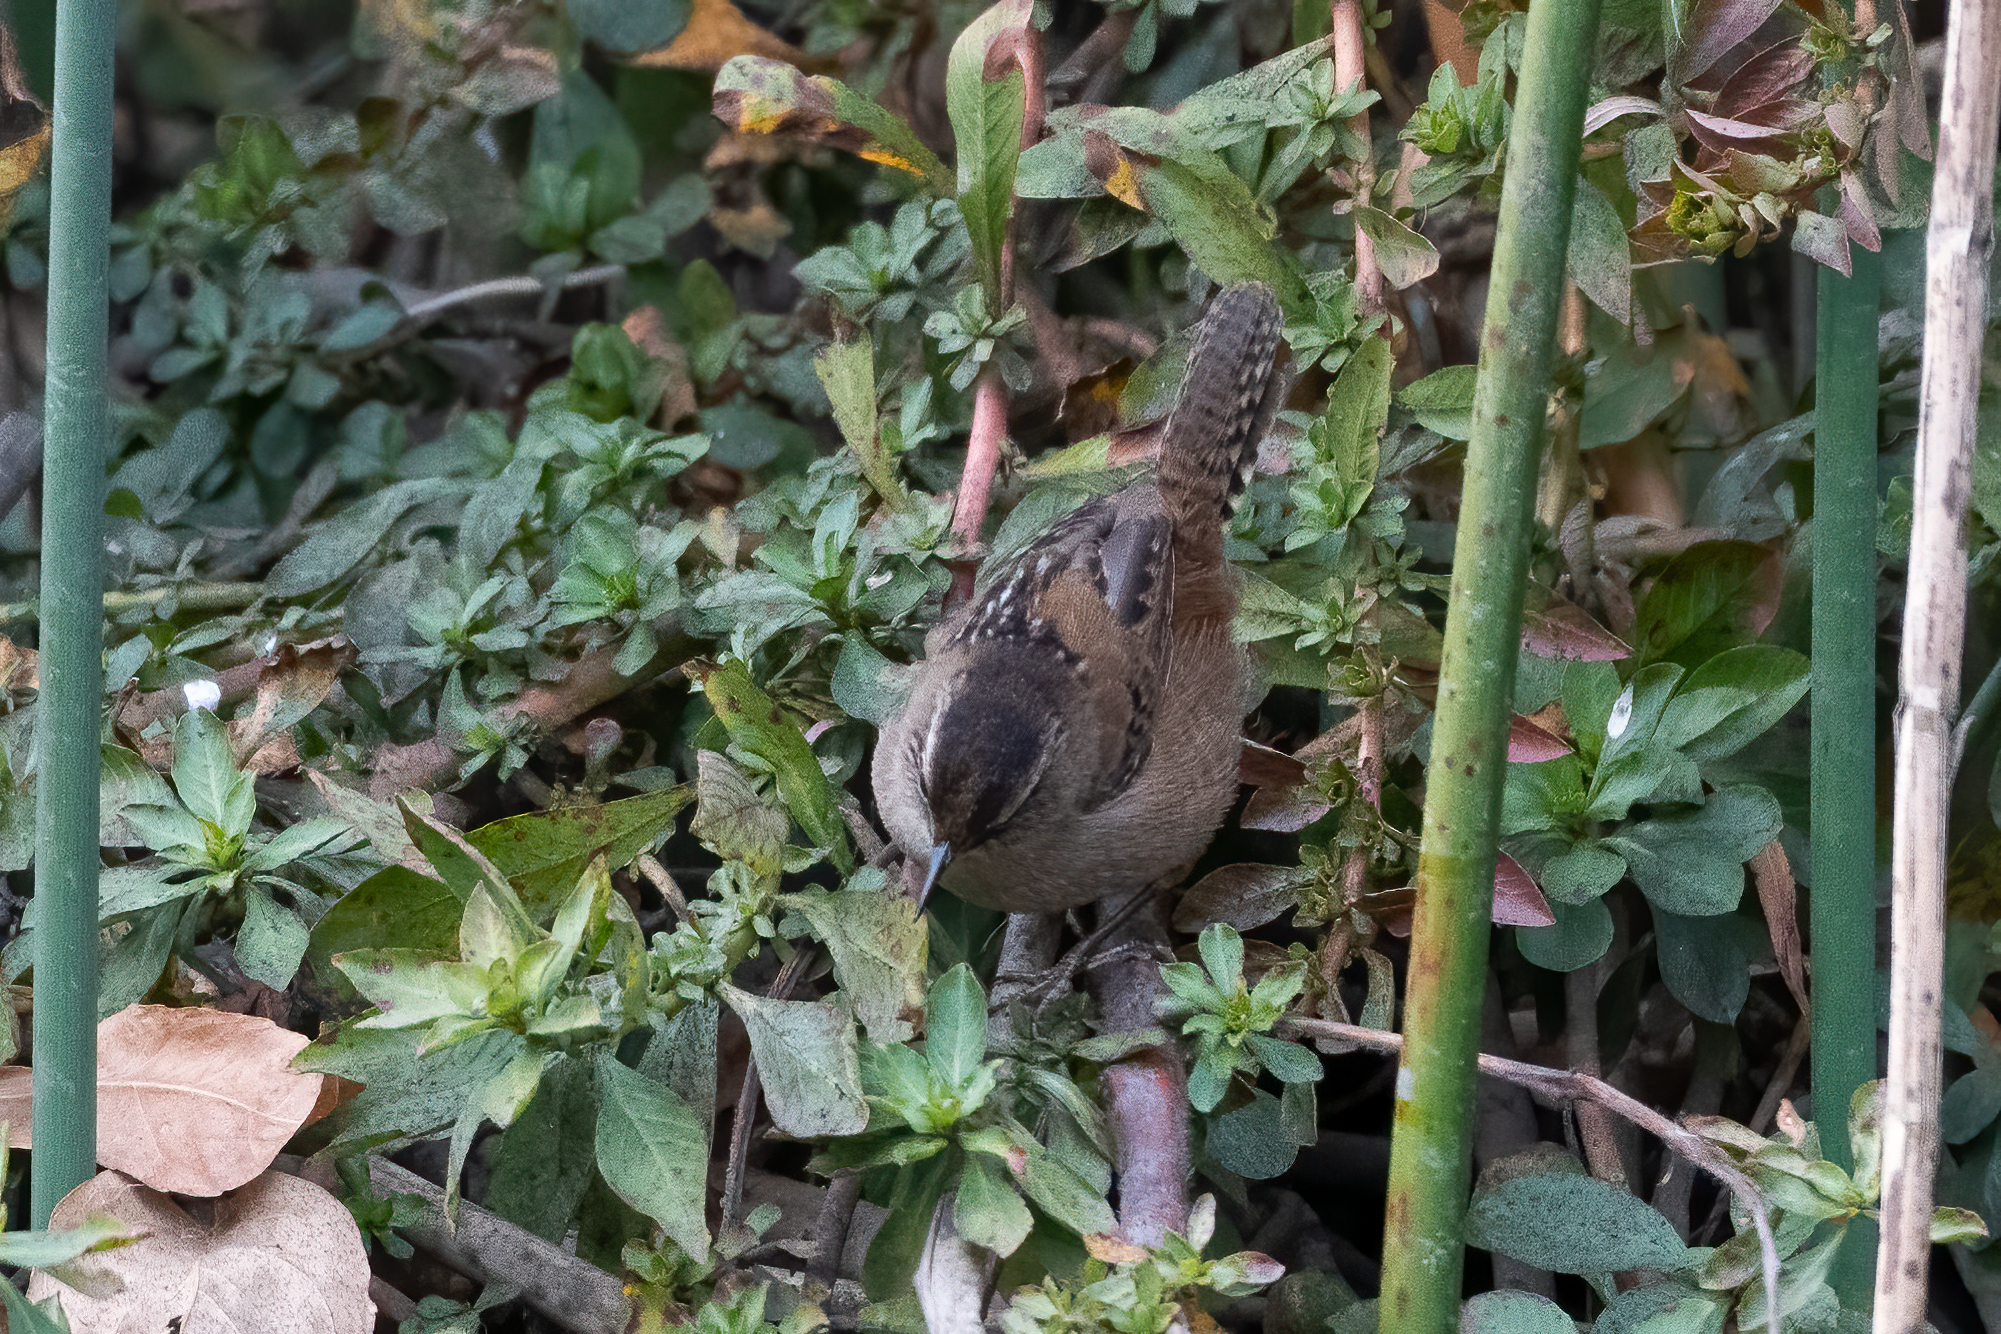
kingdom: Animalia
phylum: Chordata
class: Aves
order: Passeriformes
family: Troglodytidae
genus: Cistothorus
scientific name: Cistothorus palustris
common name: Marsh wren
